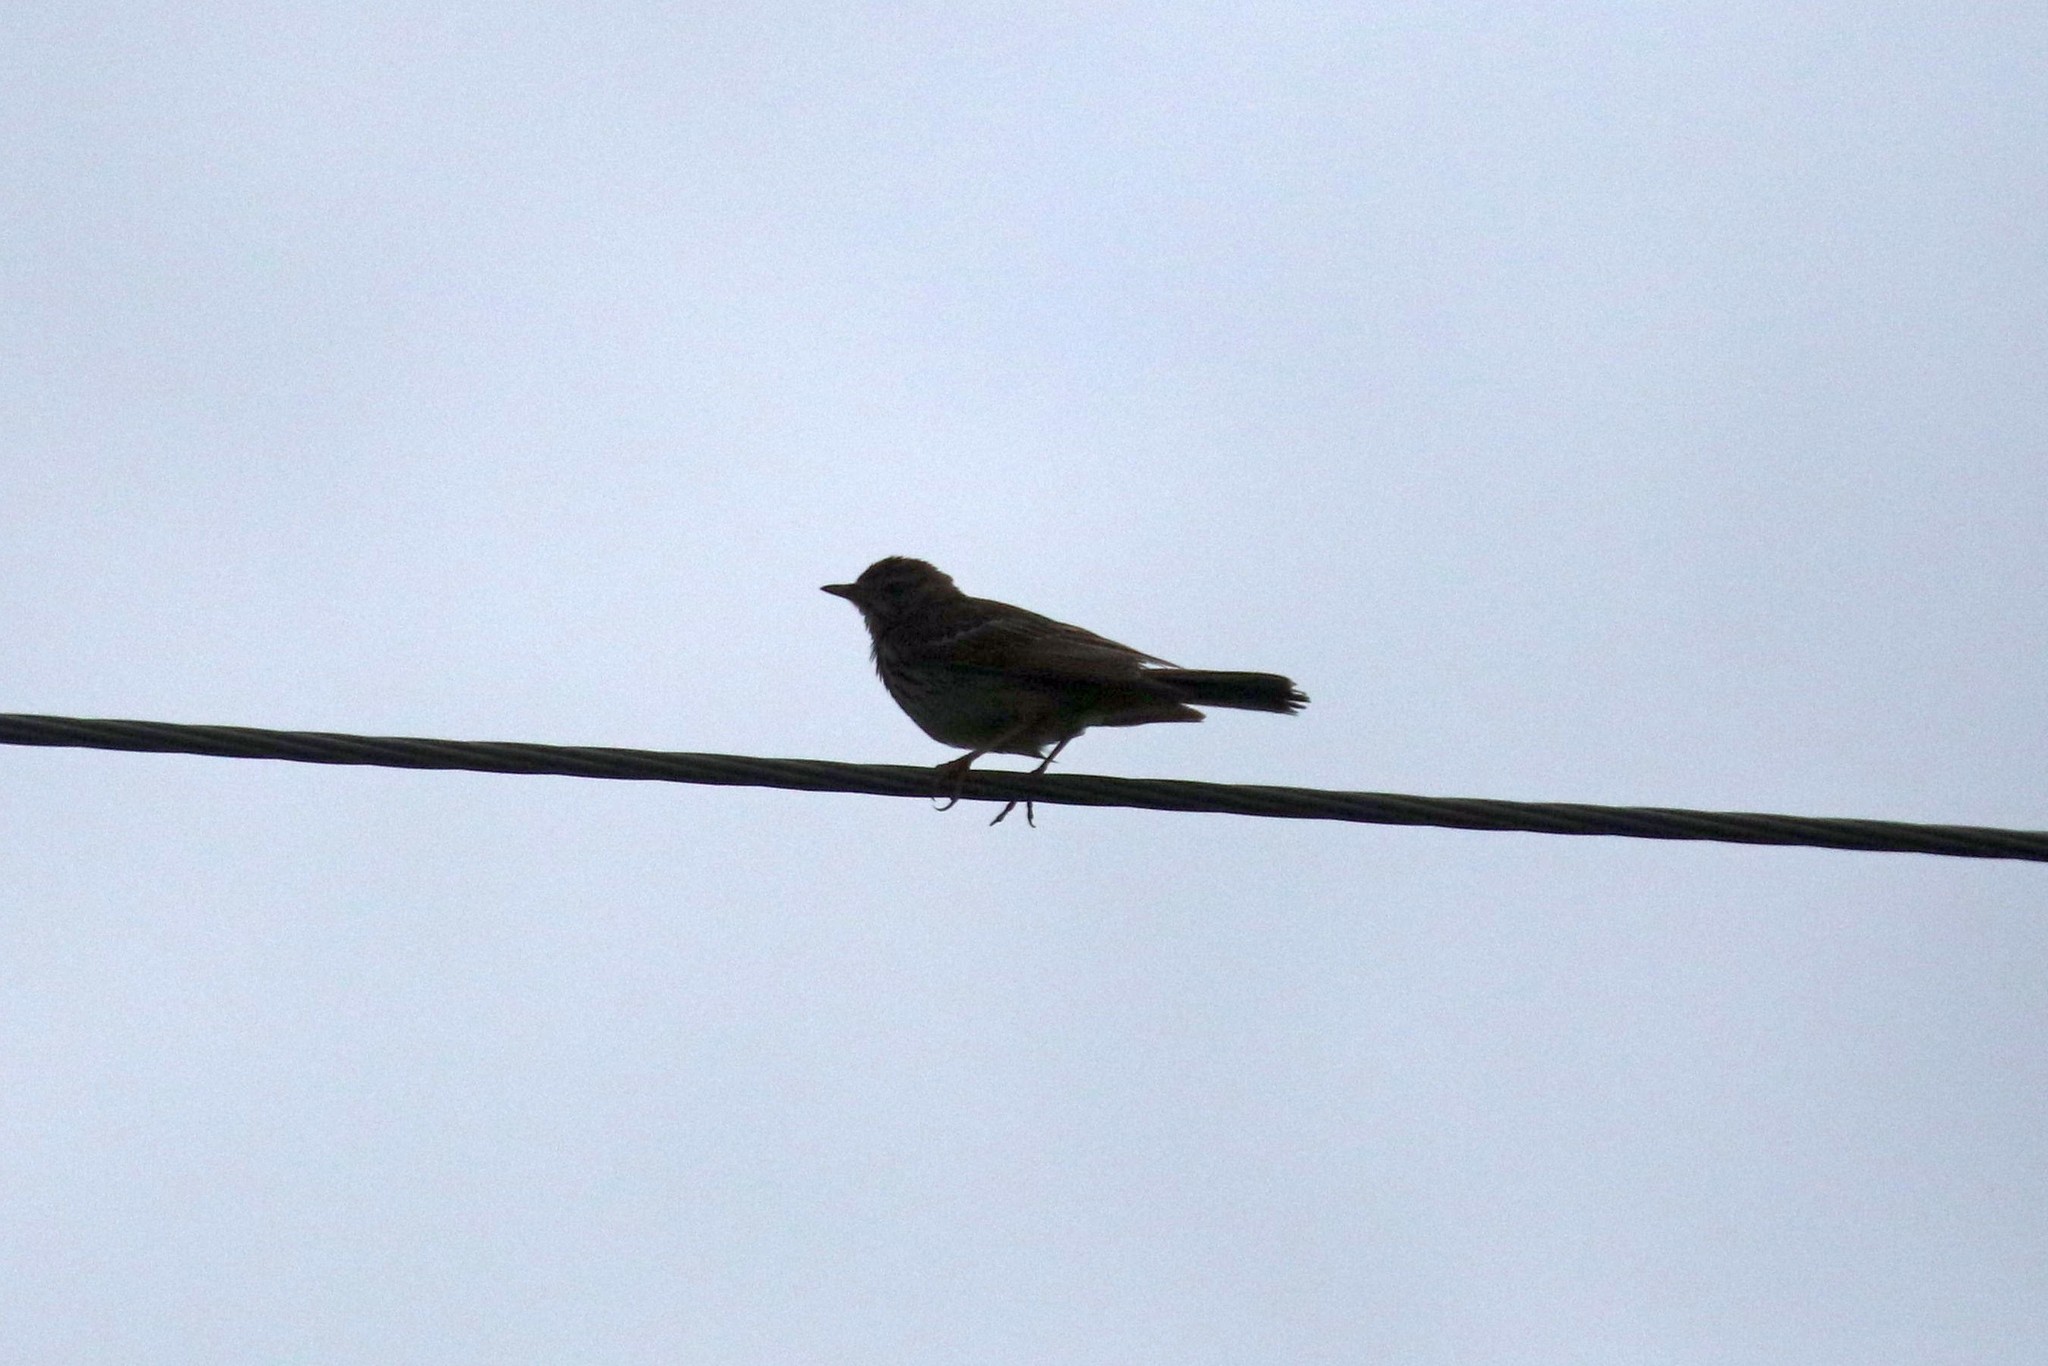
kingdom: Animalia
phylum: Chordata
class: Aves
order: Passeriformes
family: Motacillidae
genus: Anthus
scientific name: Anthus trivialis
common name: Tree pipit
